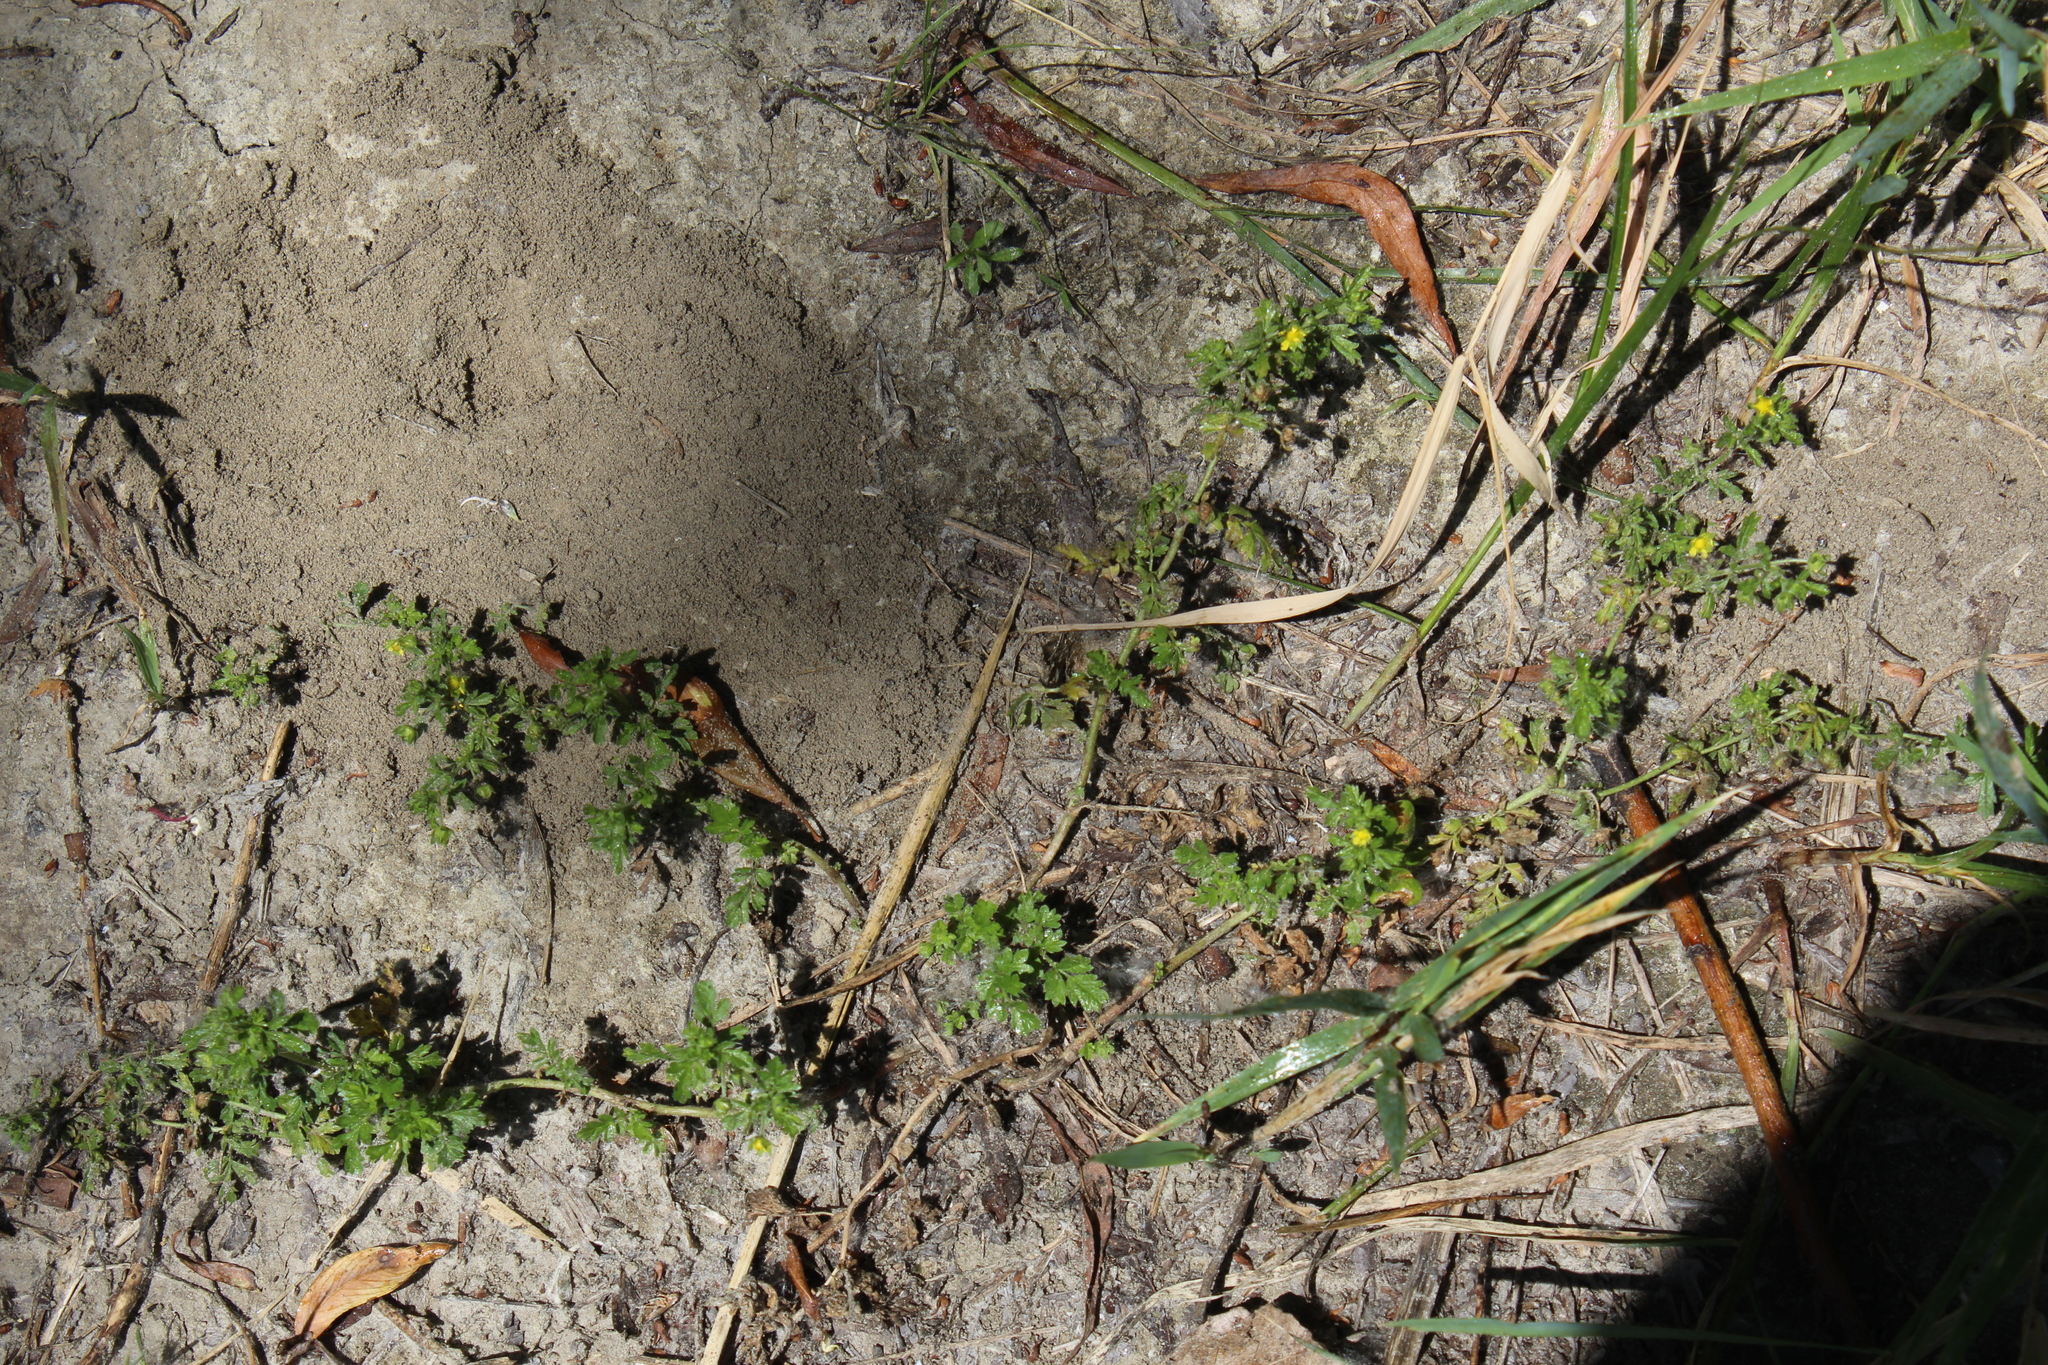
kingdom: Plantae
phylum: Tracheophyta
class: Magnoliopsida
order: Rosales
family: Rosaceae
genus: Potentilla
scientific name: Potentilla supina
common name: Prostrate cinquefoil
